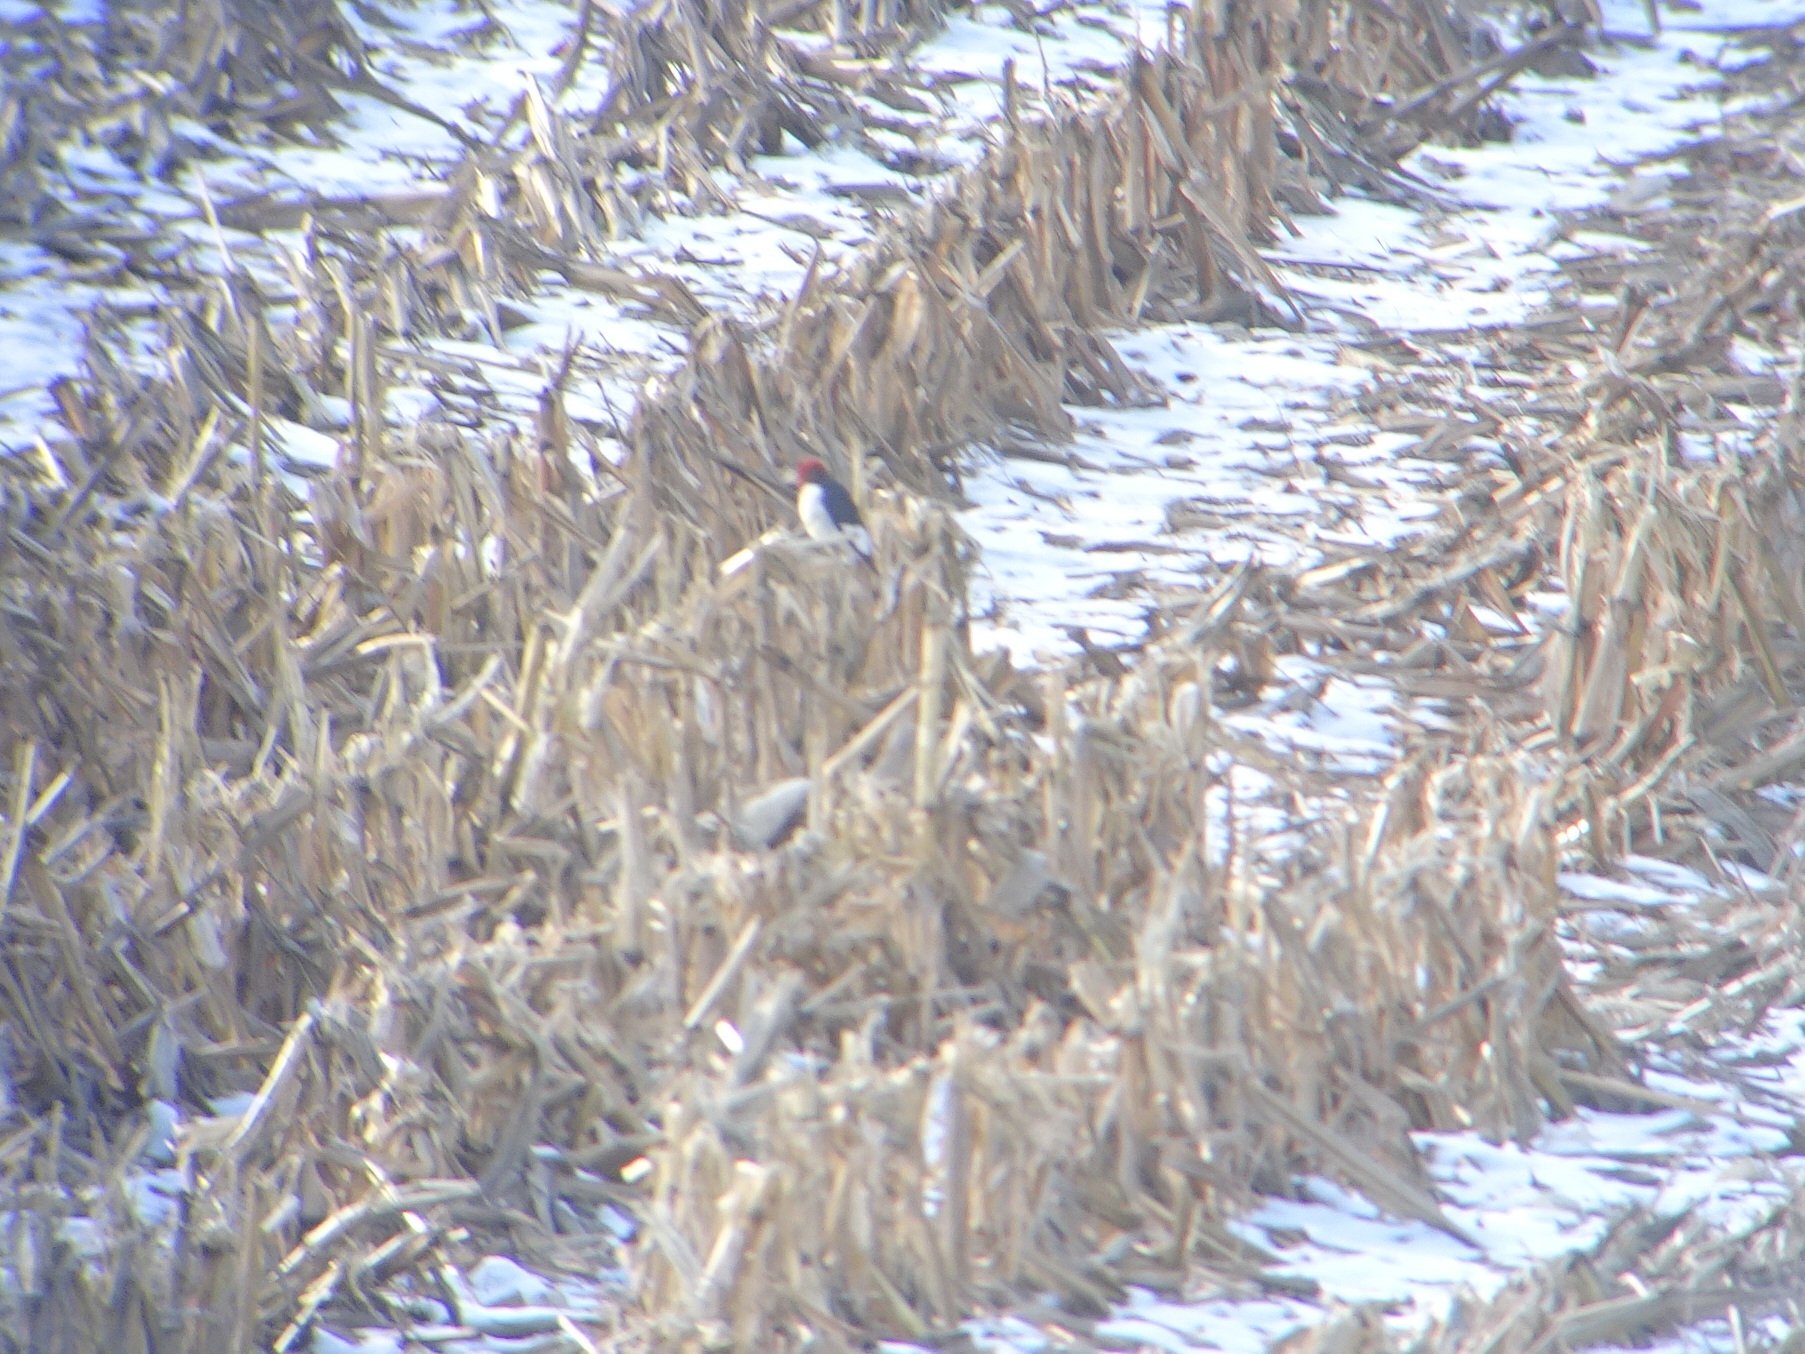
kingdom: Animalia
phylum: Chordata
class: Aves
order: Piciformes
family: Picidae
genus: Melanerpes
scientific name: Melanerpes erythrocephalus
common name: Red-headed woodpecker
